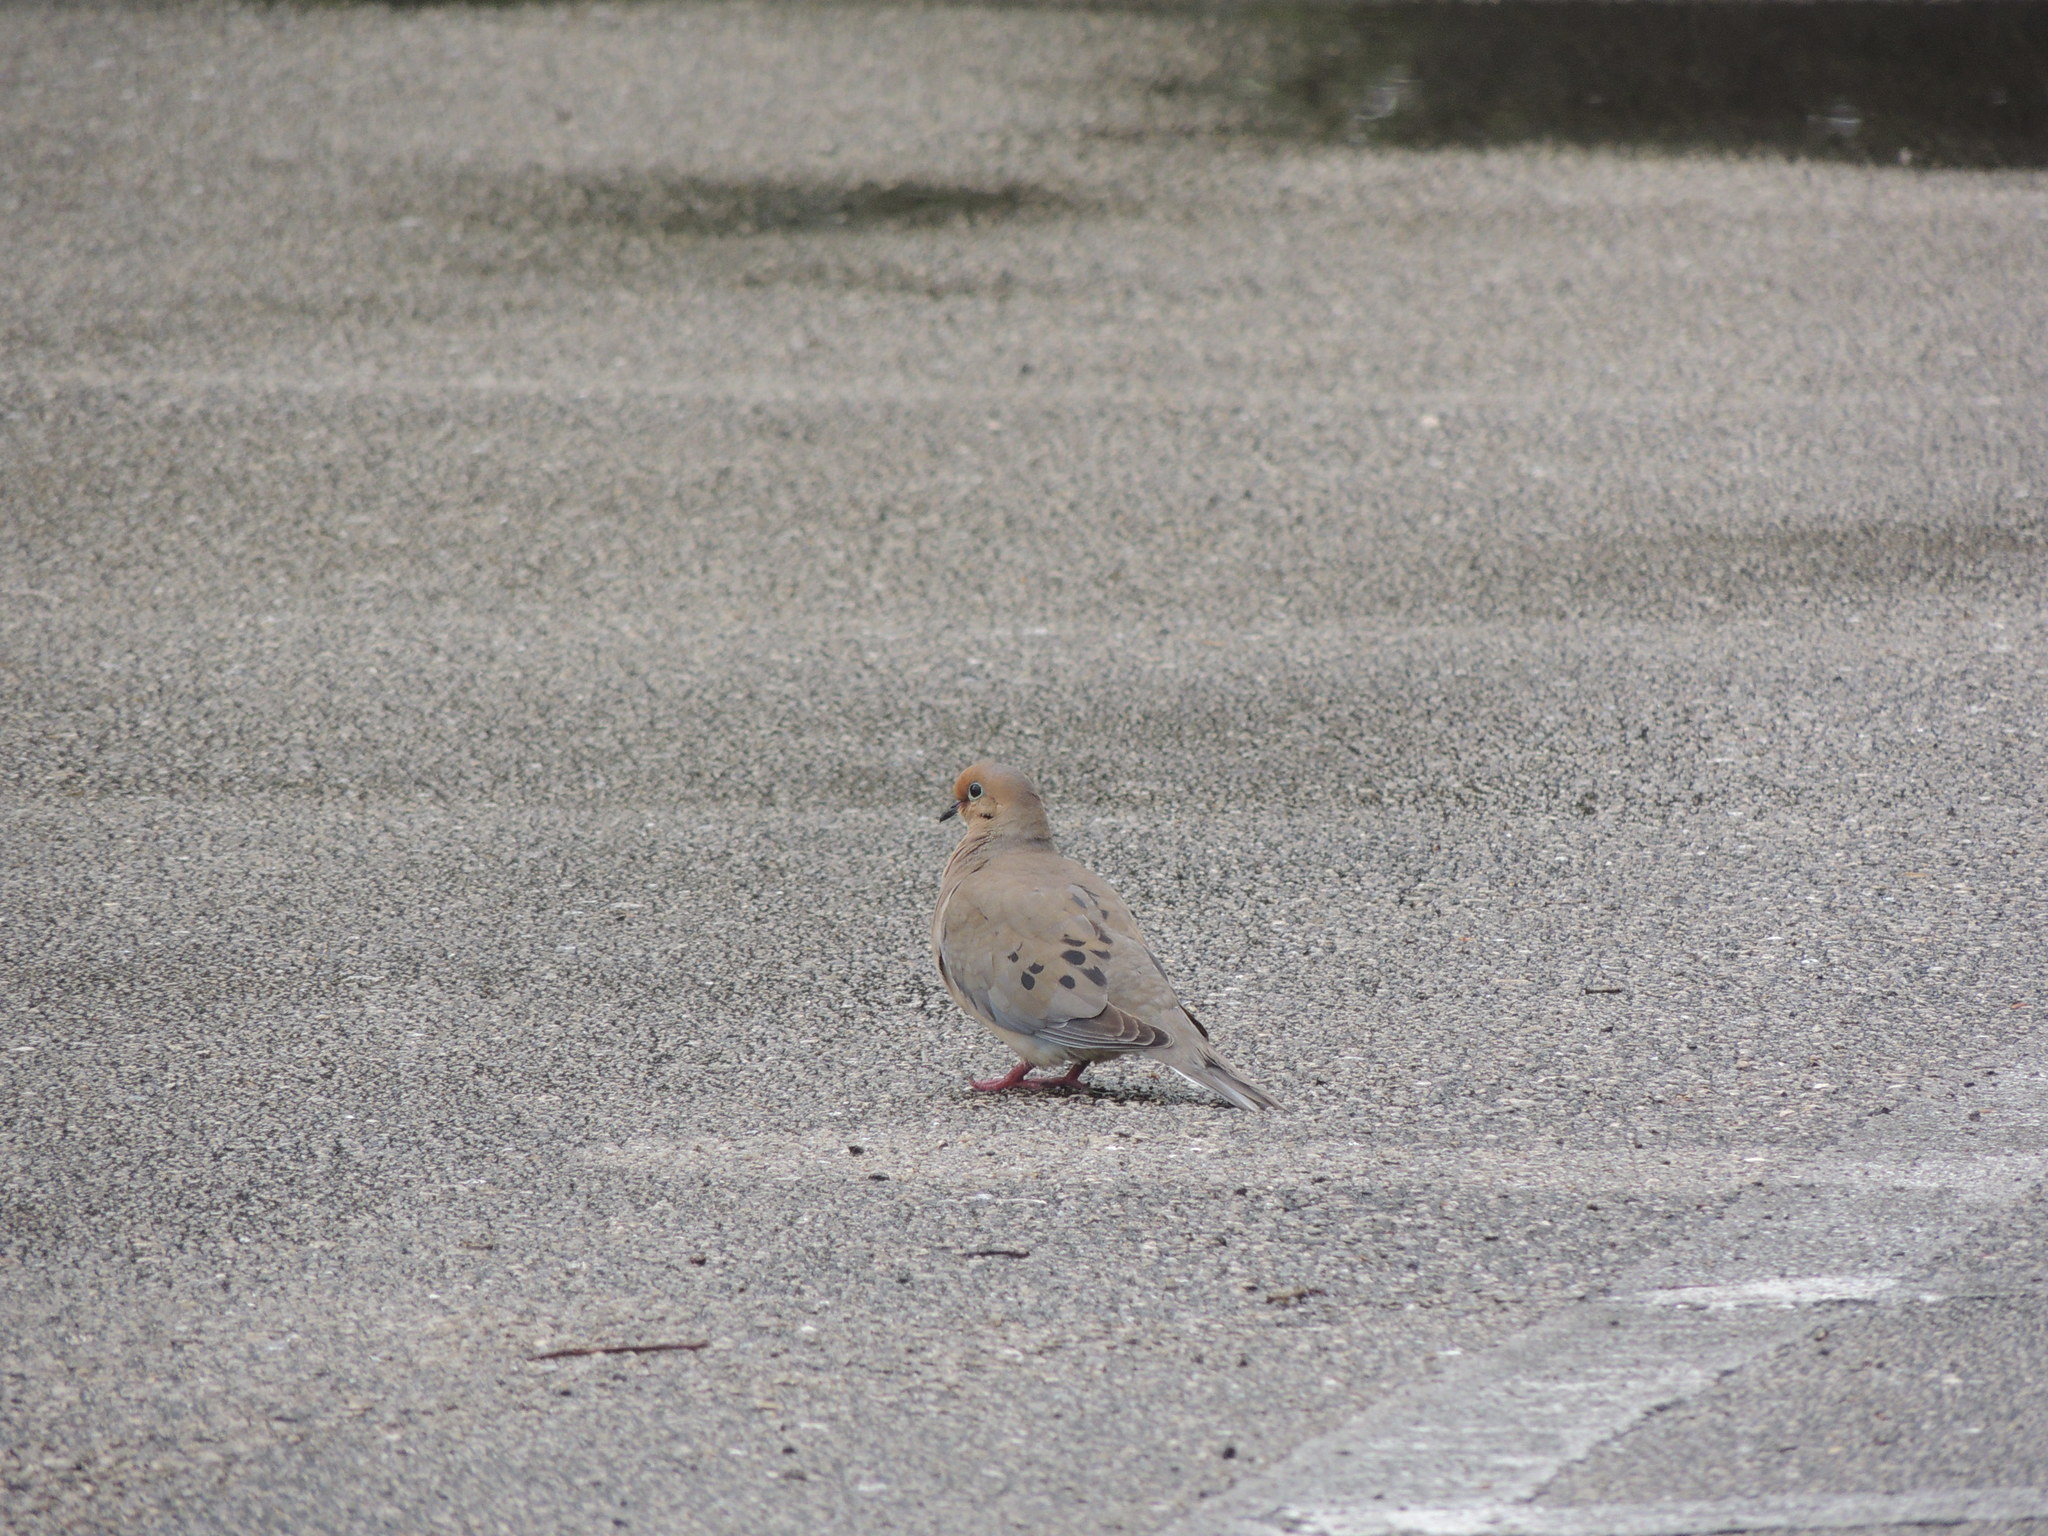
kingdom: Animalia
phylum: Chordata
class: Aves
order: Columbiformes
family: Columbidae
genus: Zenaida
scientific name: Zenaida macroura
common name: Mourning dove
